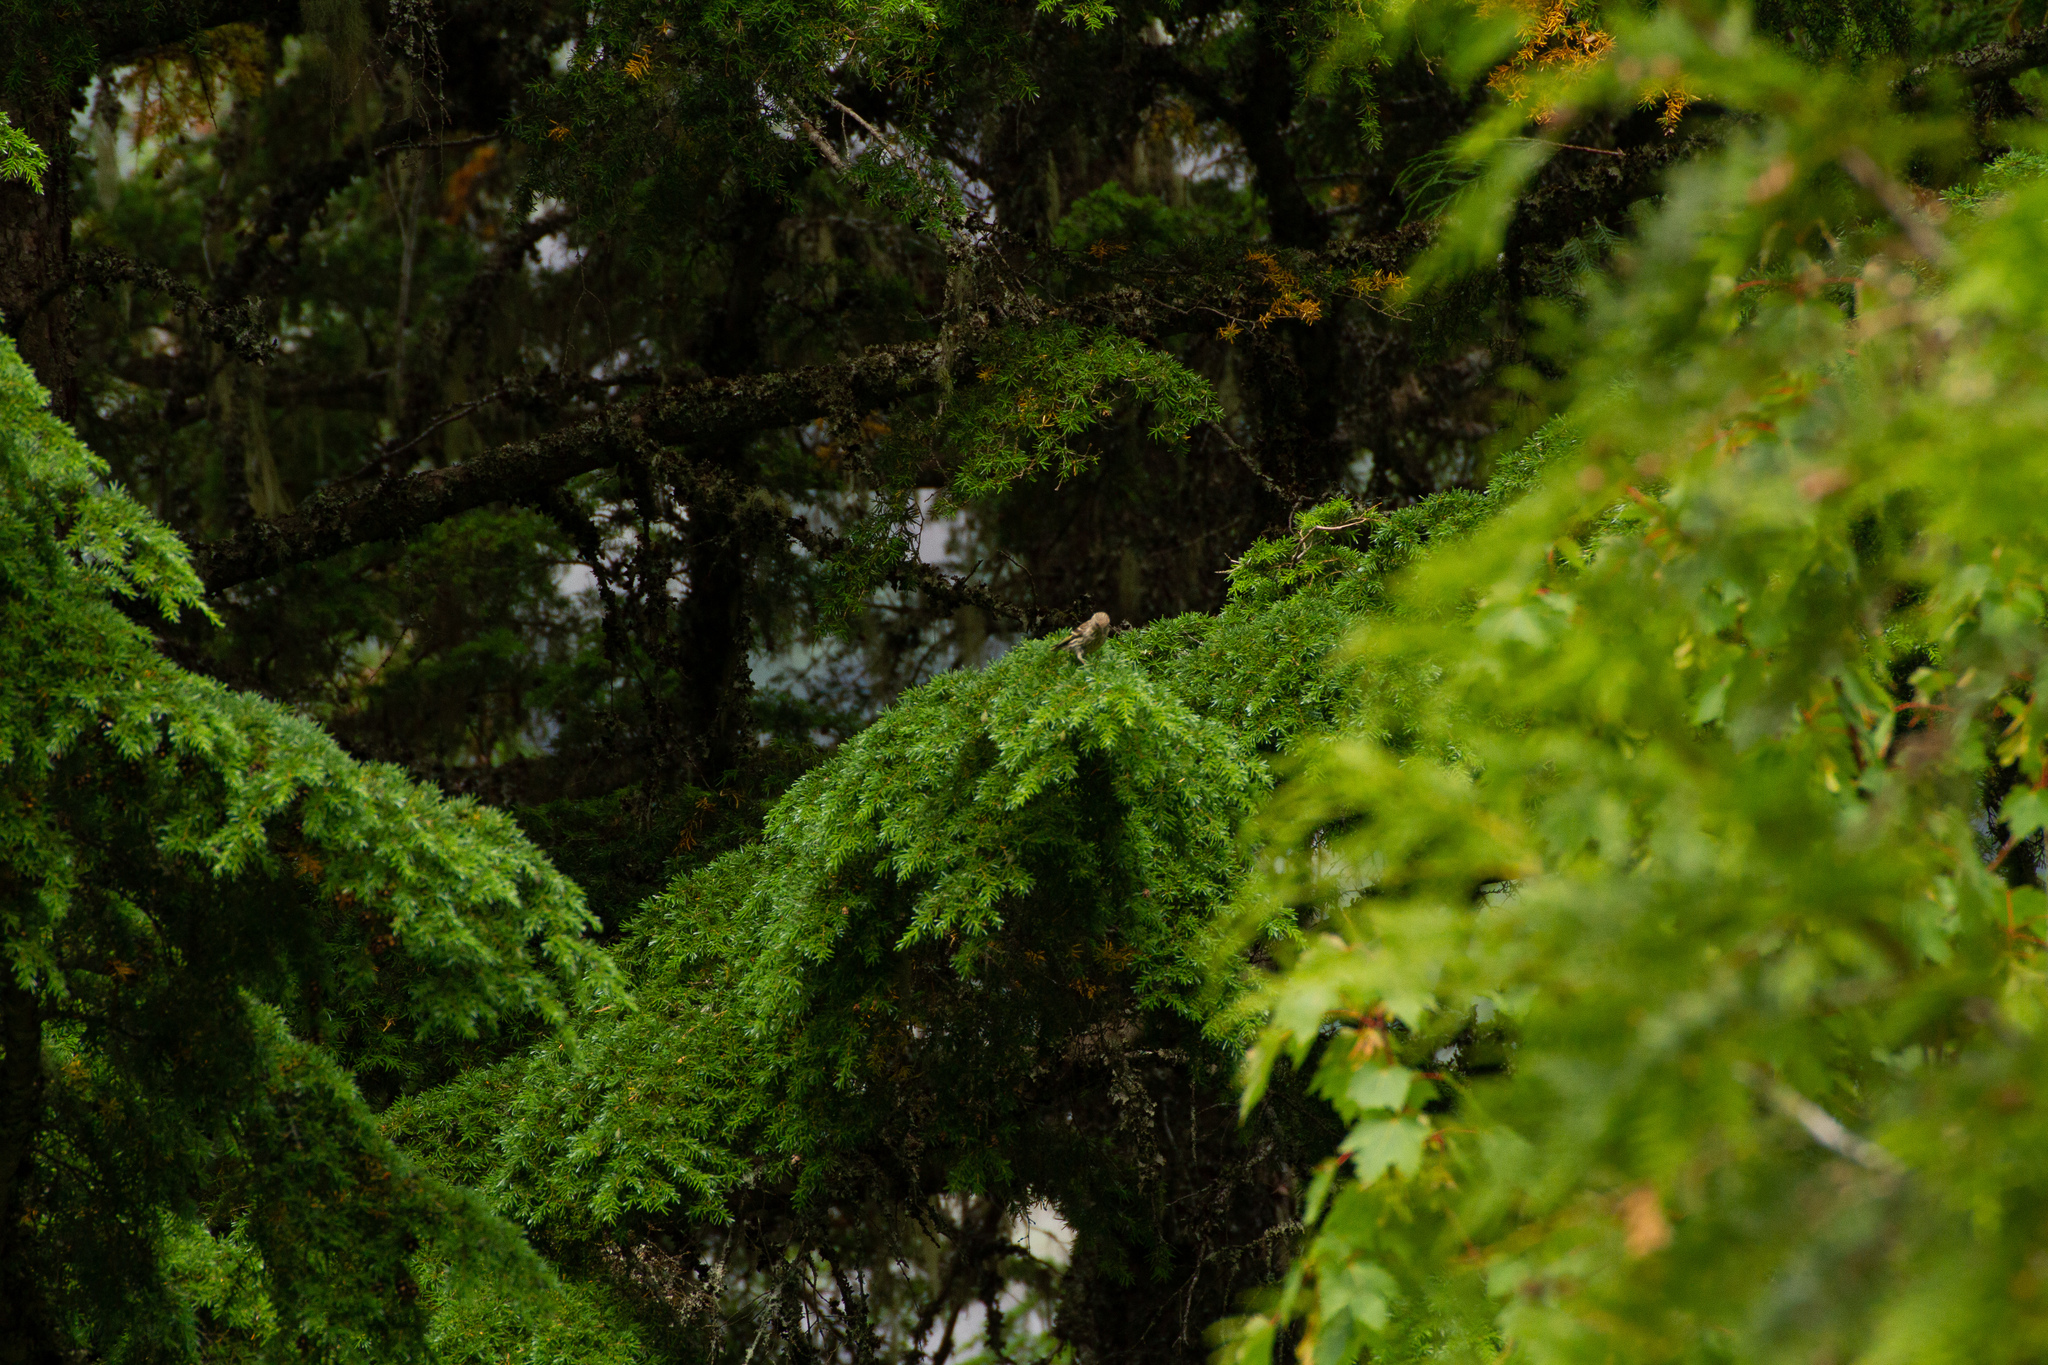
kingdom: Animalia
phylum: Chordata
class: Aves
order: Passeriformes
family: Fringillidae
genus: Spinus
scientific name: Spinus pinus
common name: Pine siskin
